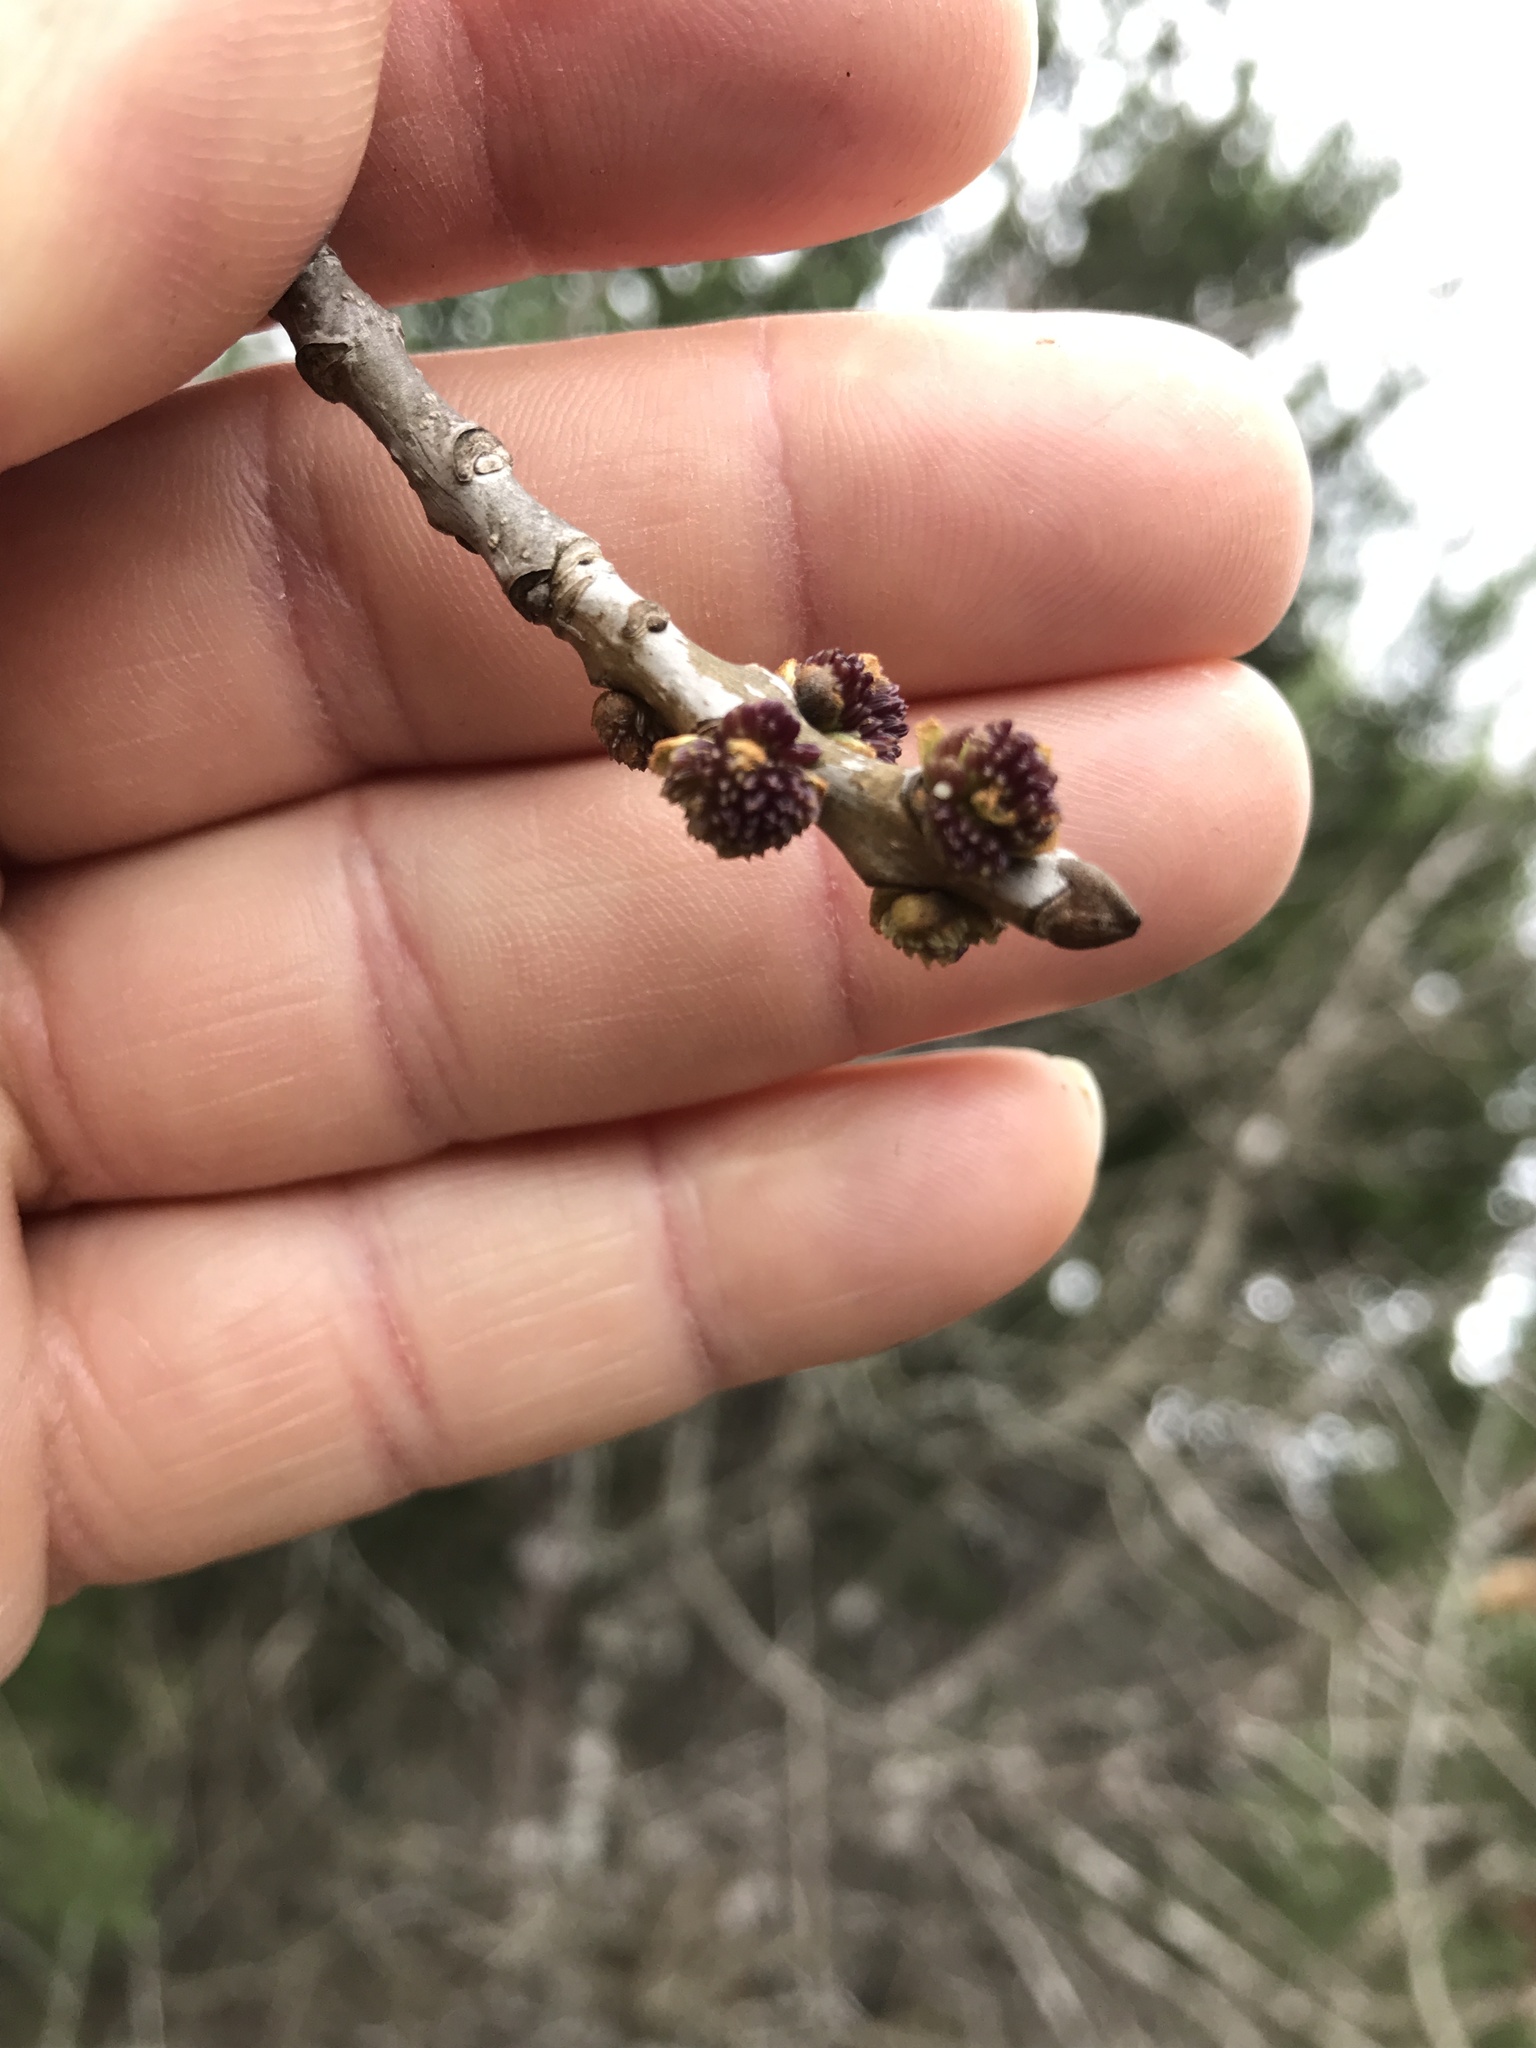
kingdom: Plantae
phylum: Tracheophyta
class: Magnoliopsida
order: Lamiales
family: Oleaceae
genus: Fraxinus
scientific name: Fraxinus albicans
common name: Texas ash
